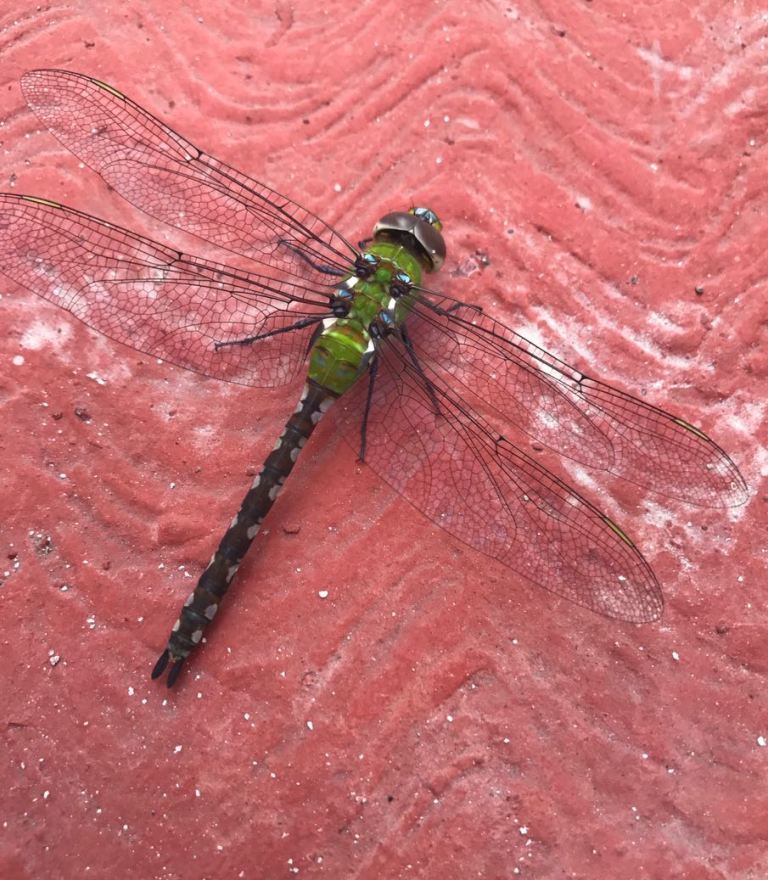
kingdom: Animalia
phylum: Arthropoda
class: Insecta
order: Odonata
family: Aeshnidae
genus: Anax
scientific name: Anax amazili
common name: Amazon darner
